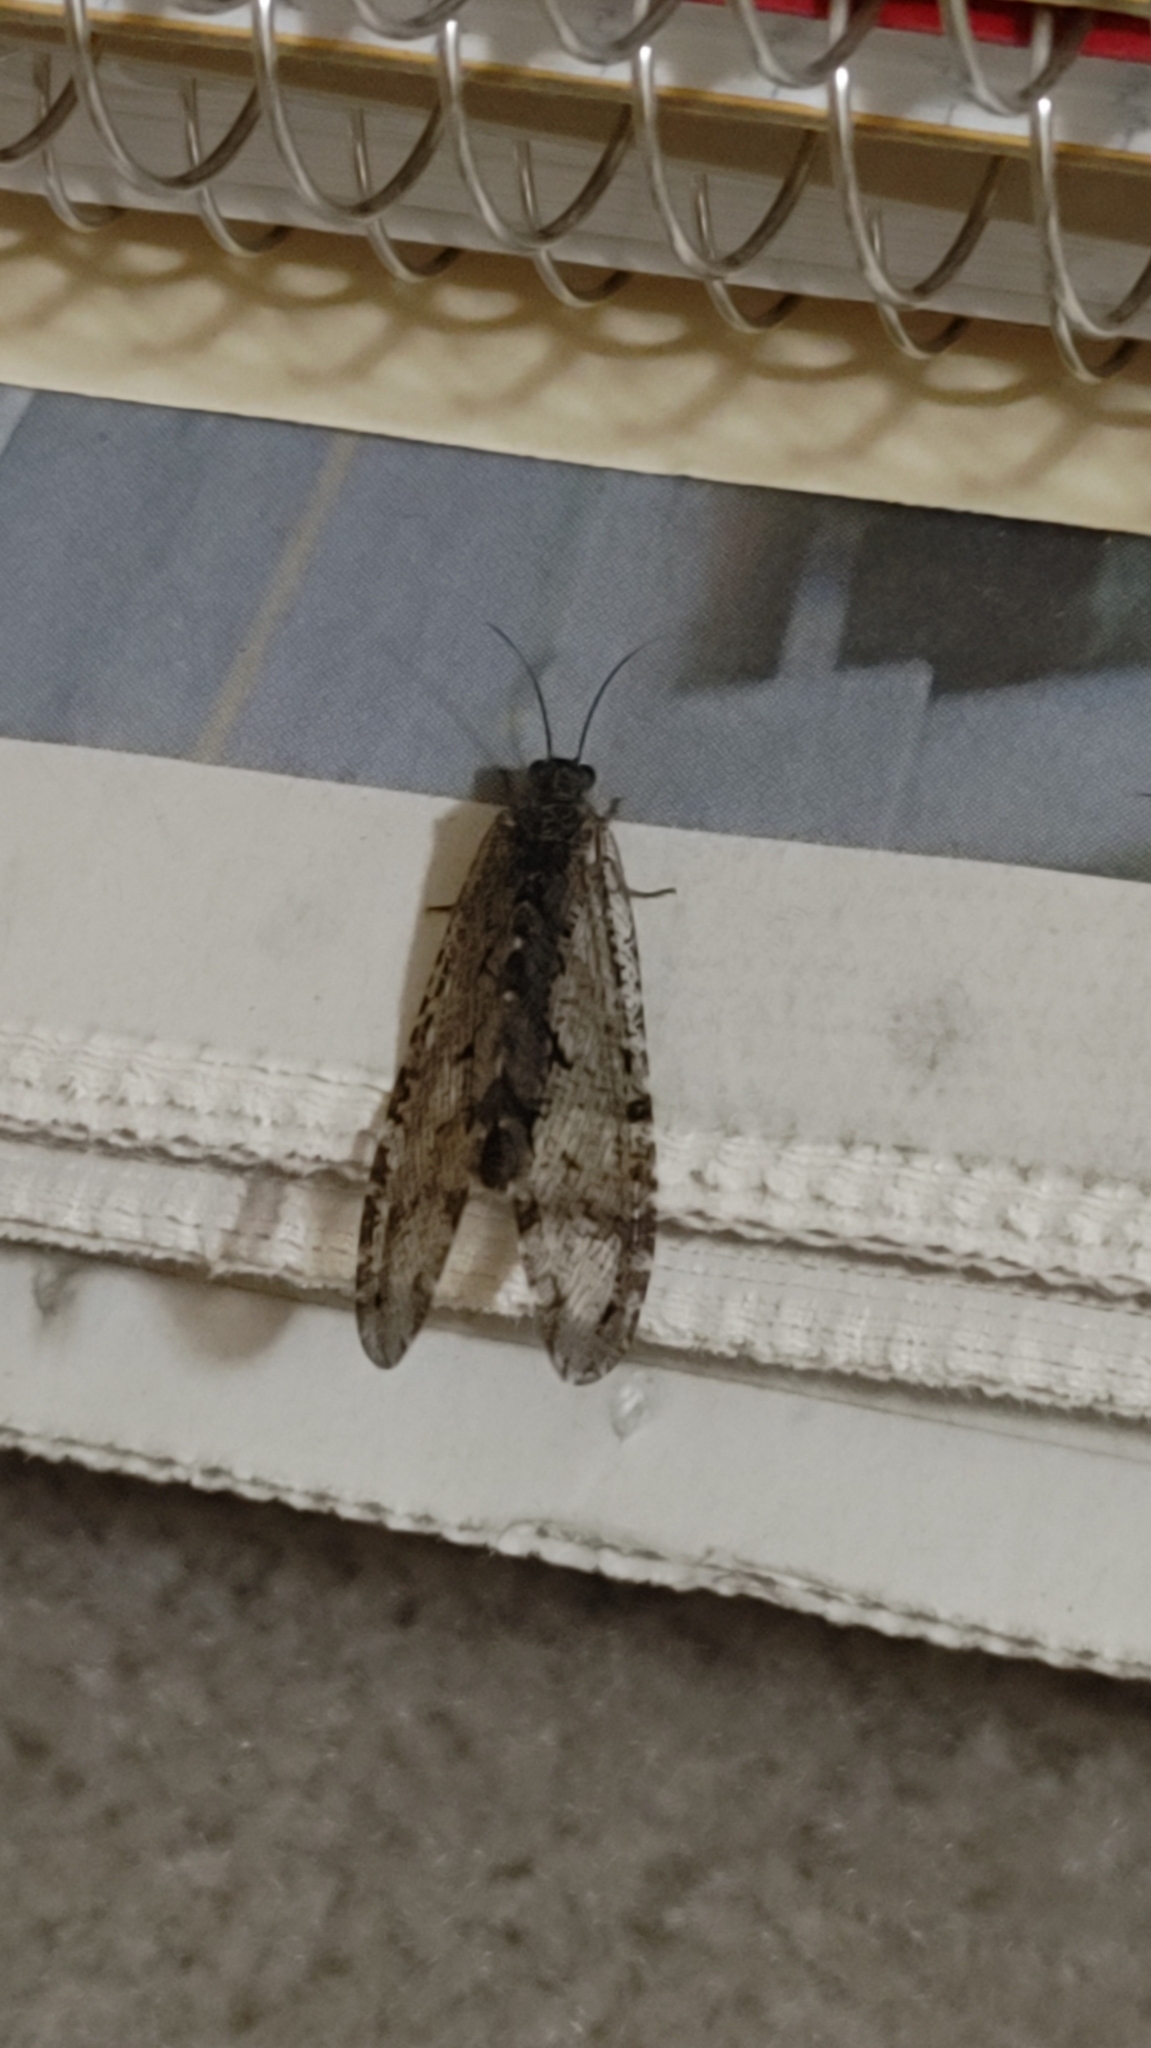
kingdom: Animalia
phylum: Arthropoda
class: Insecta
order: Neuroptera
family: Ithonidae
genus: Polystoechotes
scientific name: Polystoechotes punctata
